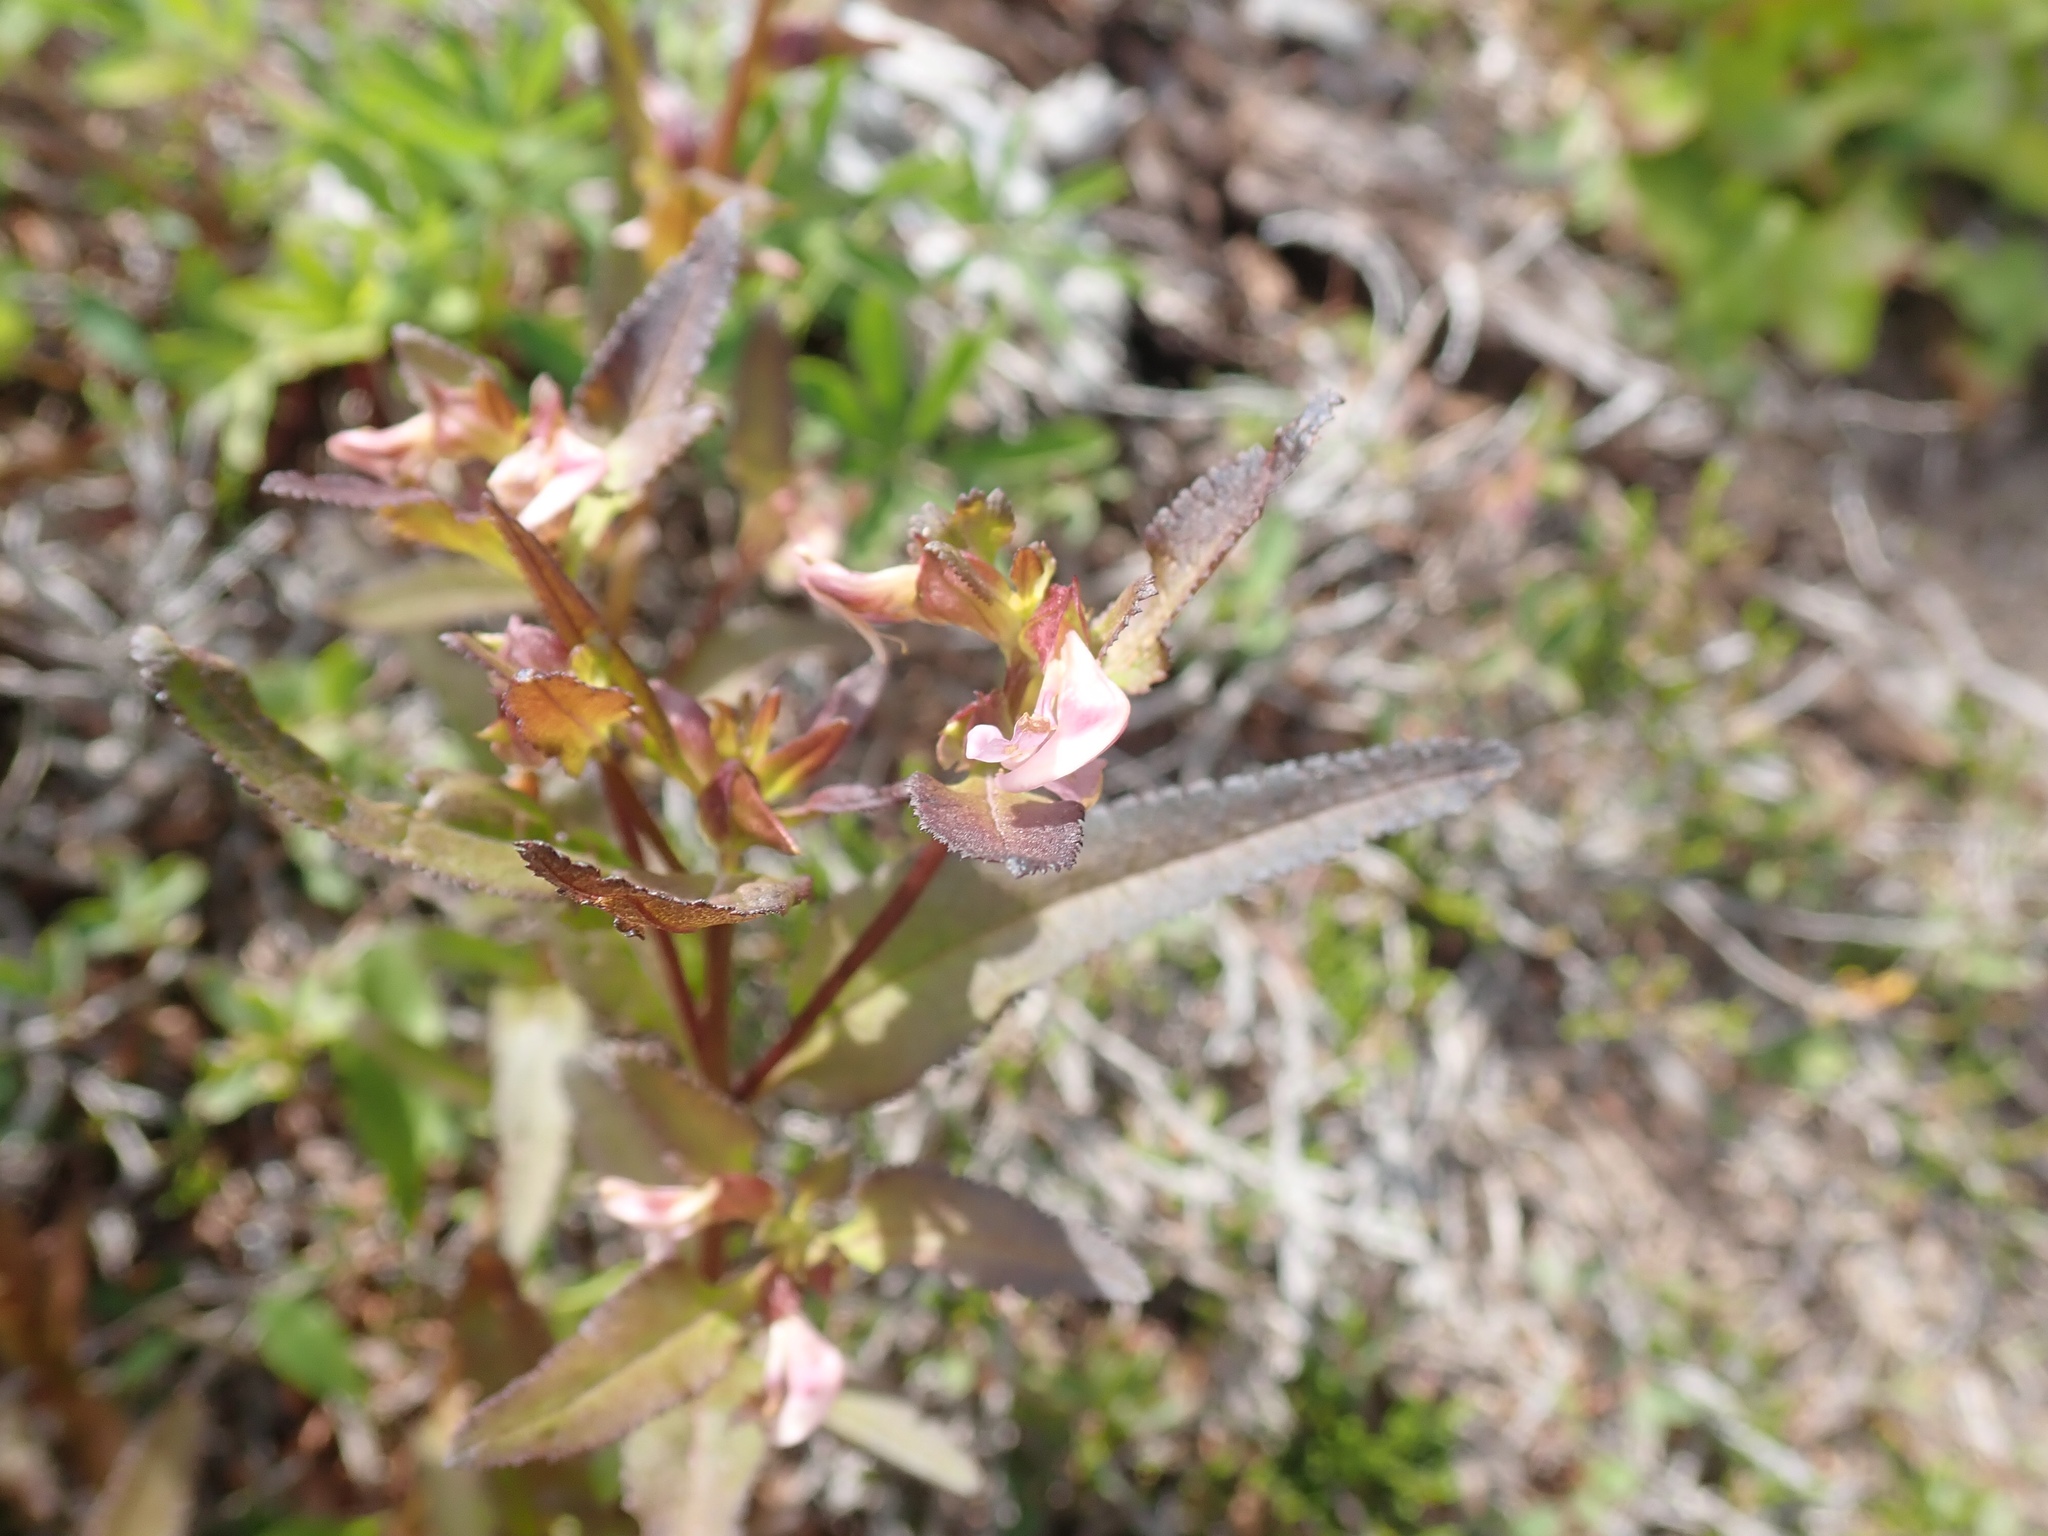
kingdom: Plantae
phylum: Tracheophyta
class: Magnoliopsida
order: Lamiales
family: Orobanchaceae
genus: Pedicularis
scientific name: Pedicularis racemosa
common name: Leafy lousewort
